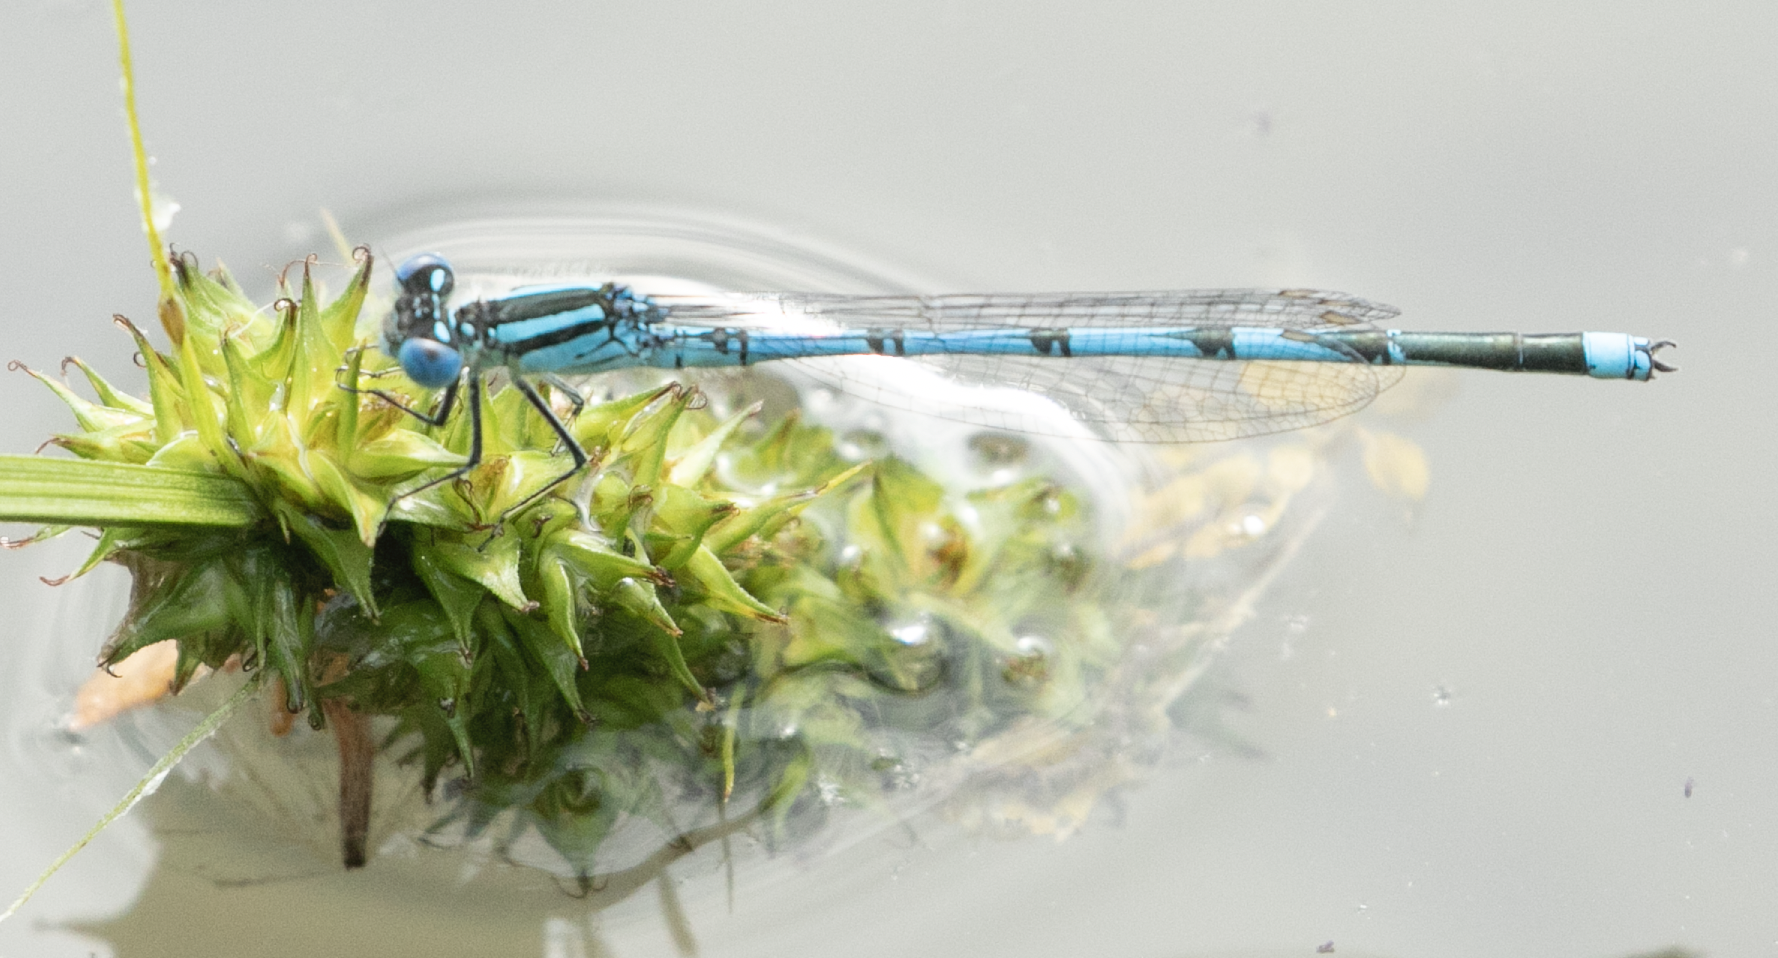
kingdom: Animalia
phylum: Arthropoda
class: Insecta
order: Odonata
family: Coenagrionidae
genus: Erythromma
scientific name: Erythromma lindenii
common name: Blue-eye
